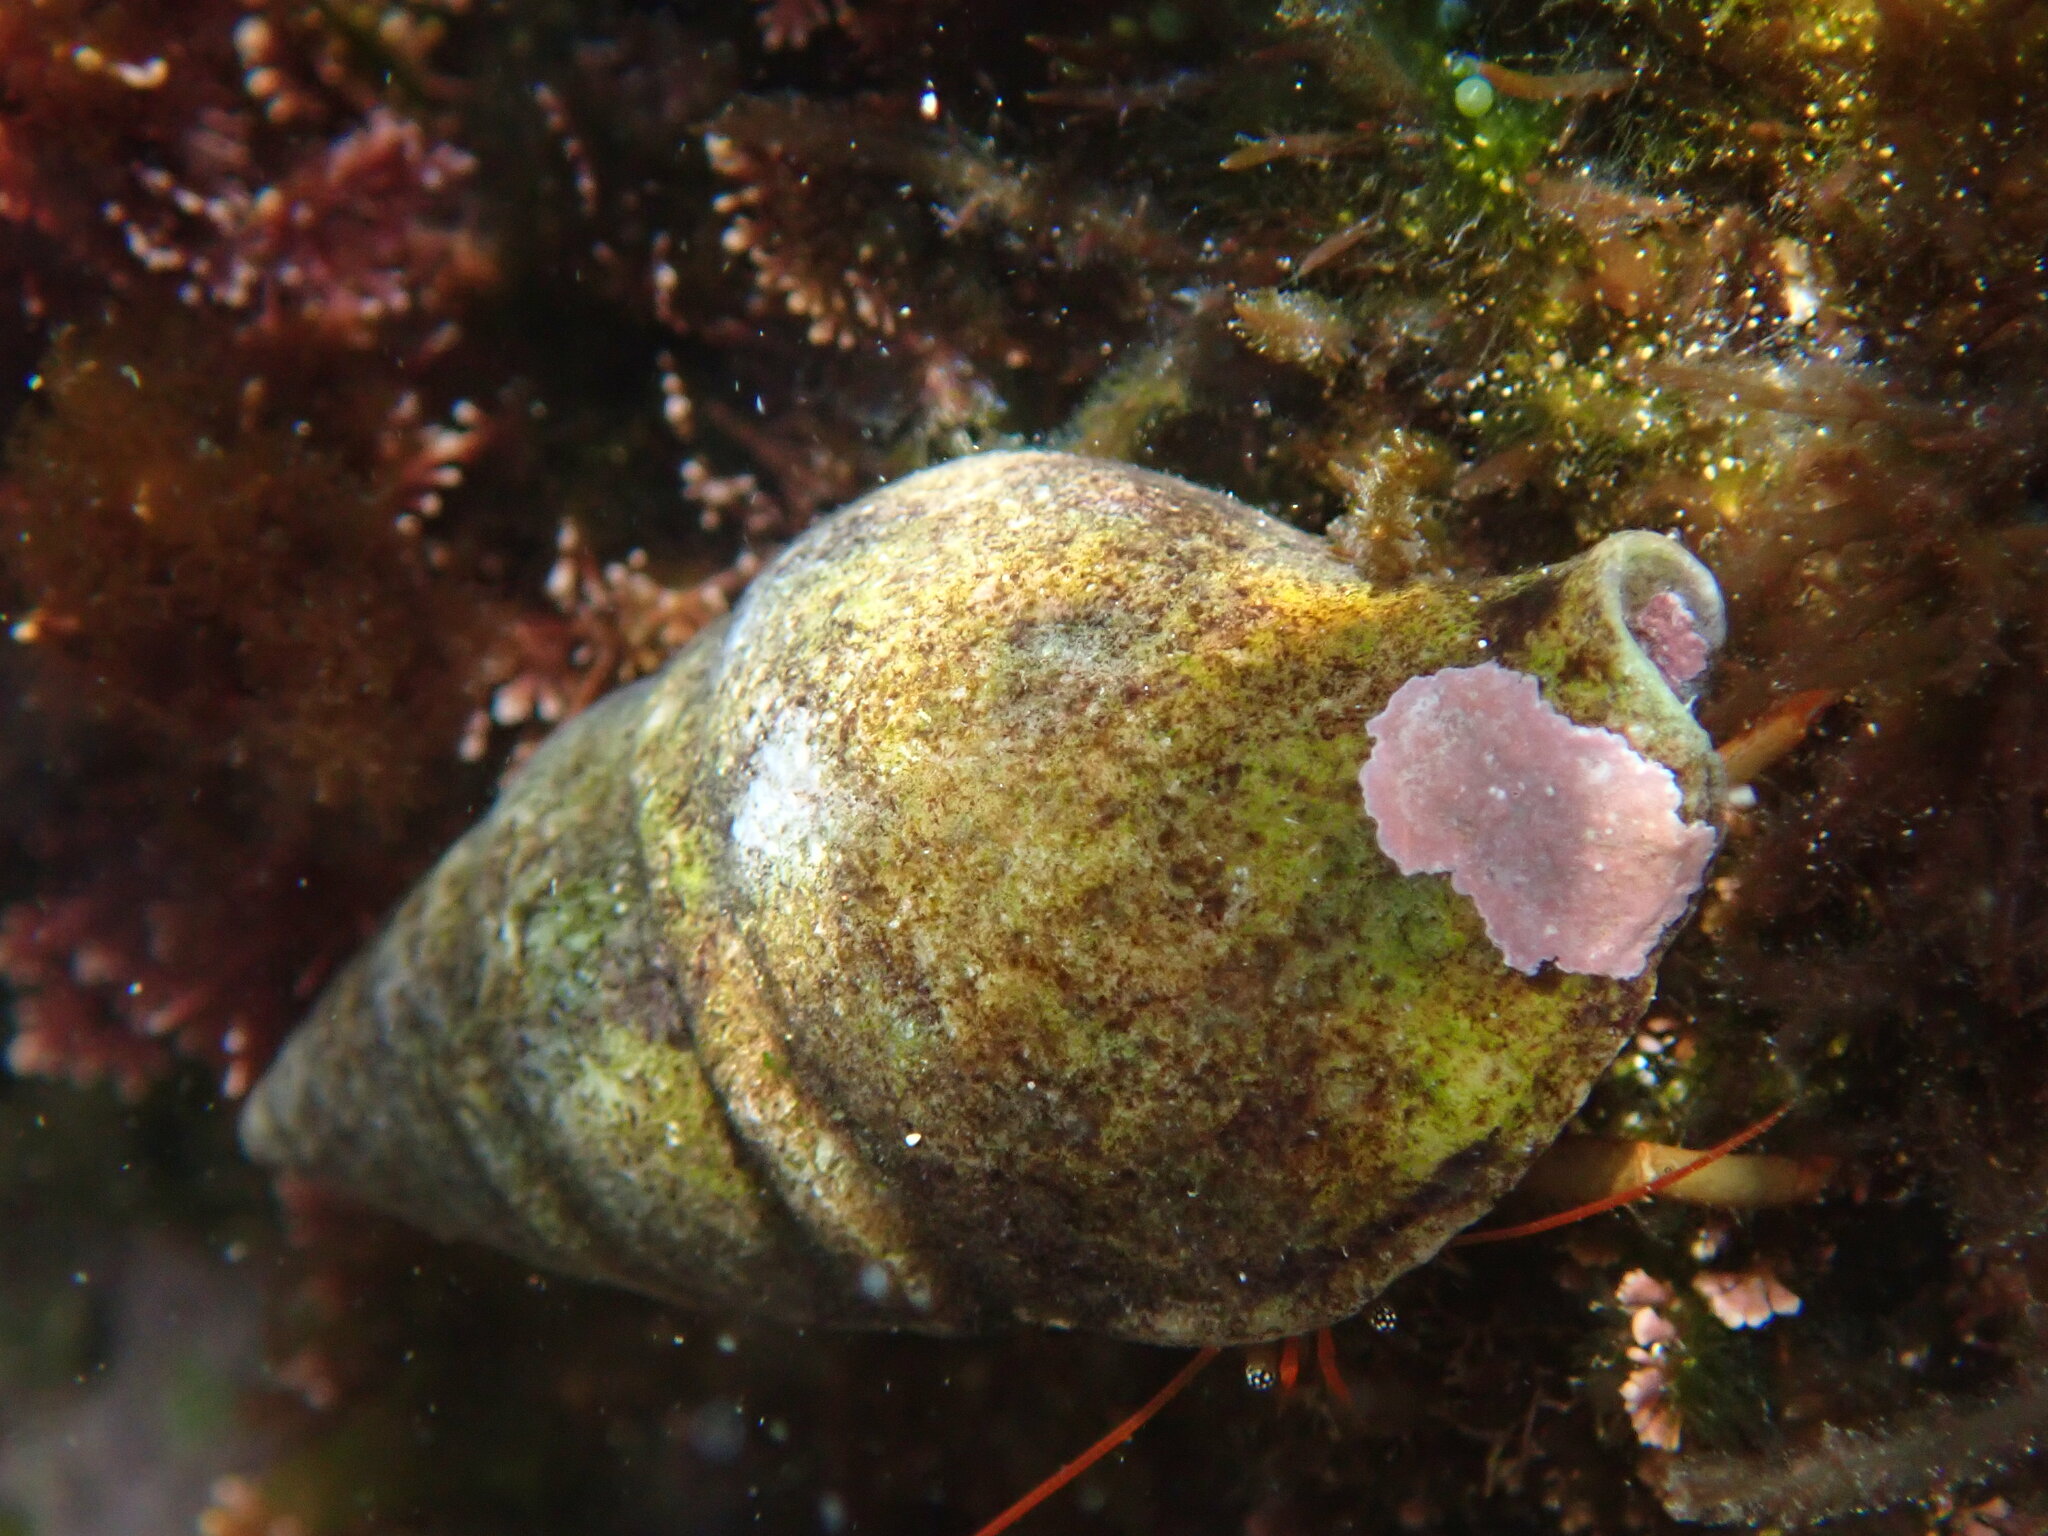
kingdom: Animalia
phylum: Mollusca
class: Gastropoda
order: Neogastropoda
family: Tudiclidae
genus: Euthria
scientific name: Euthria cornea
